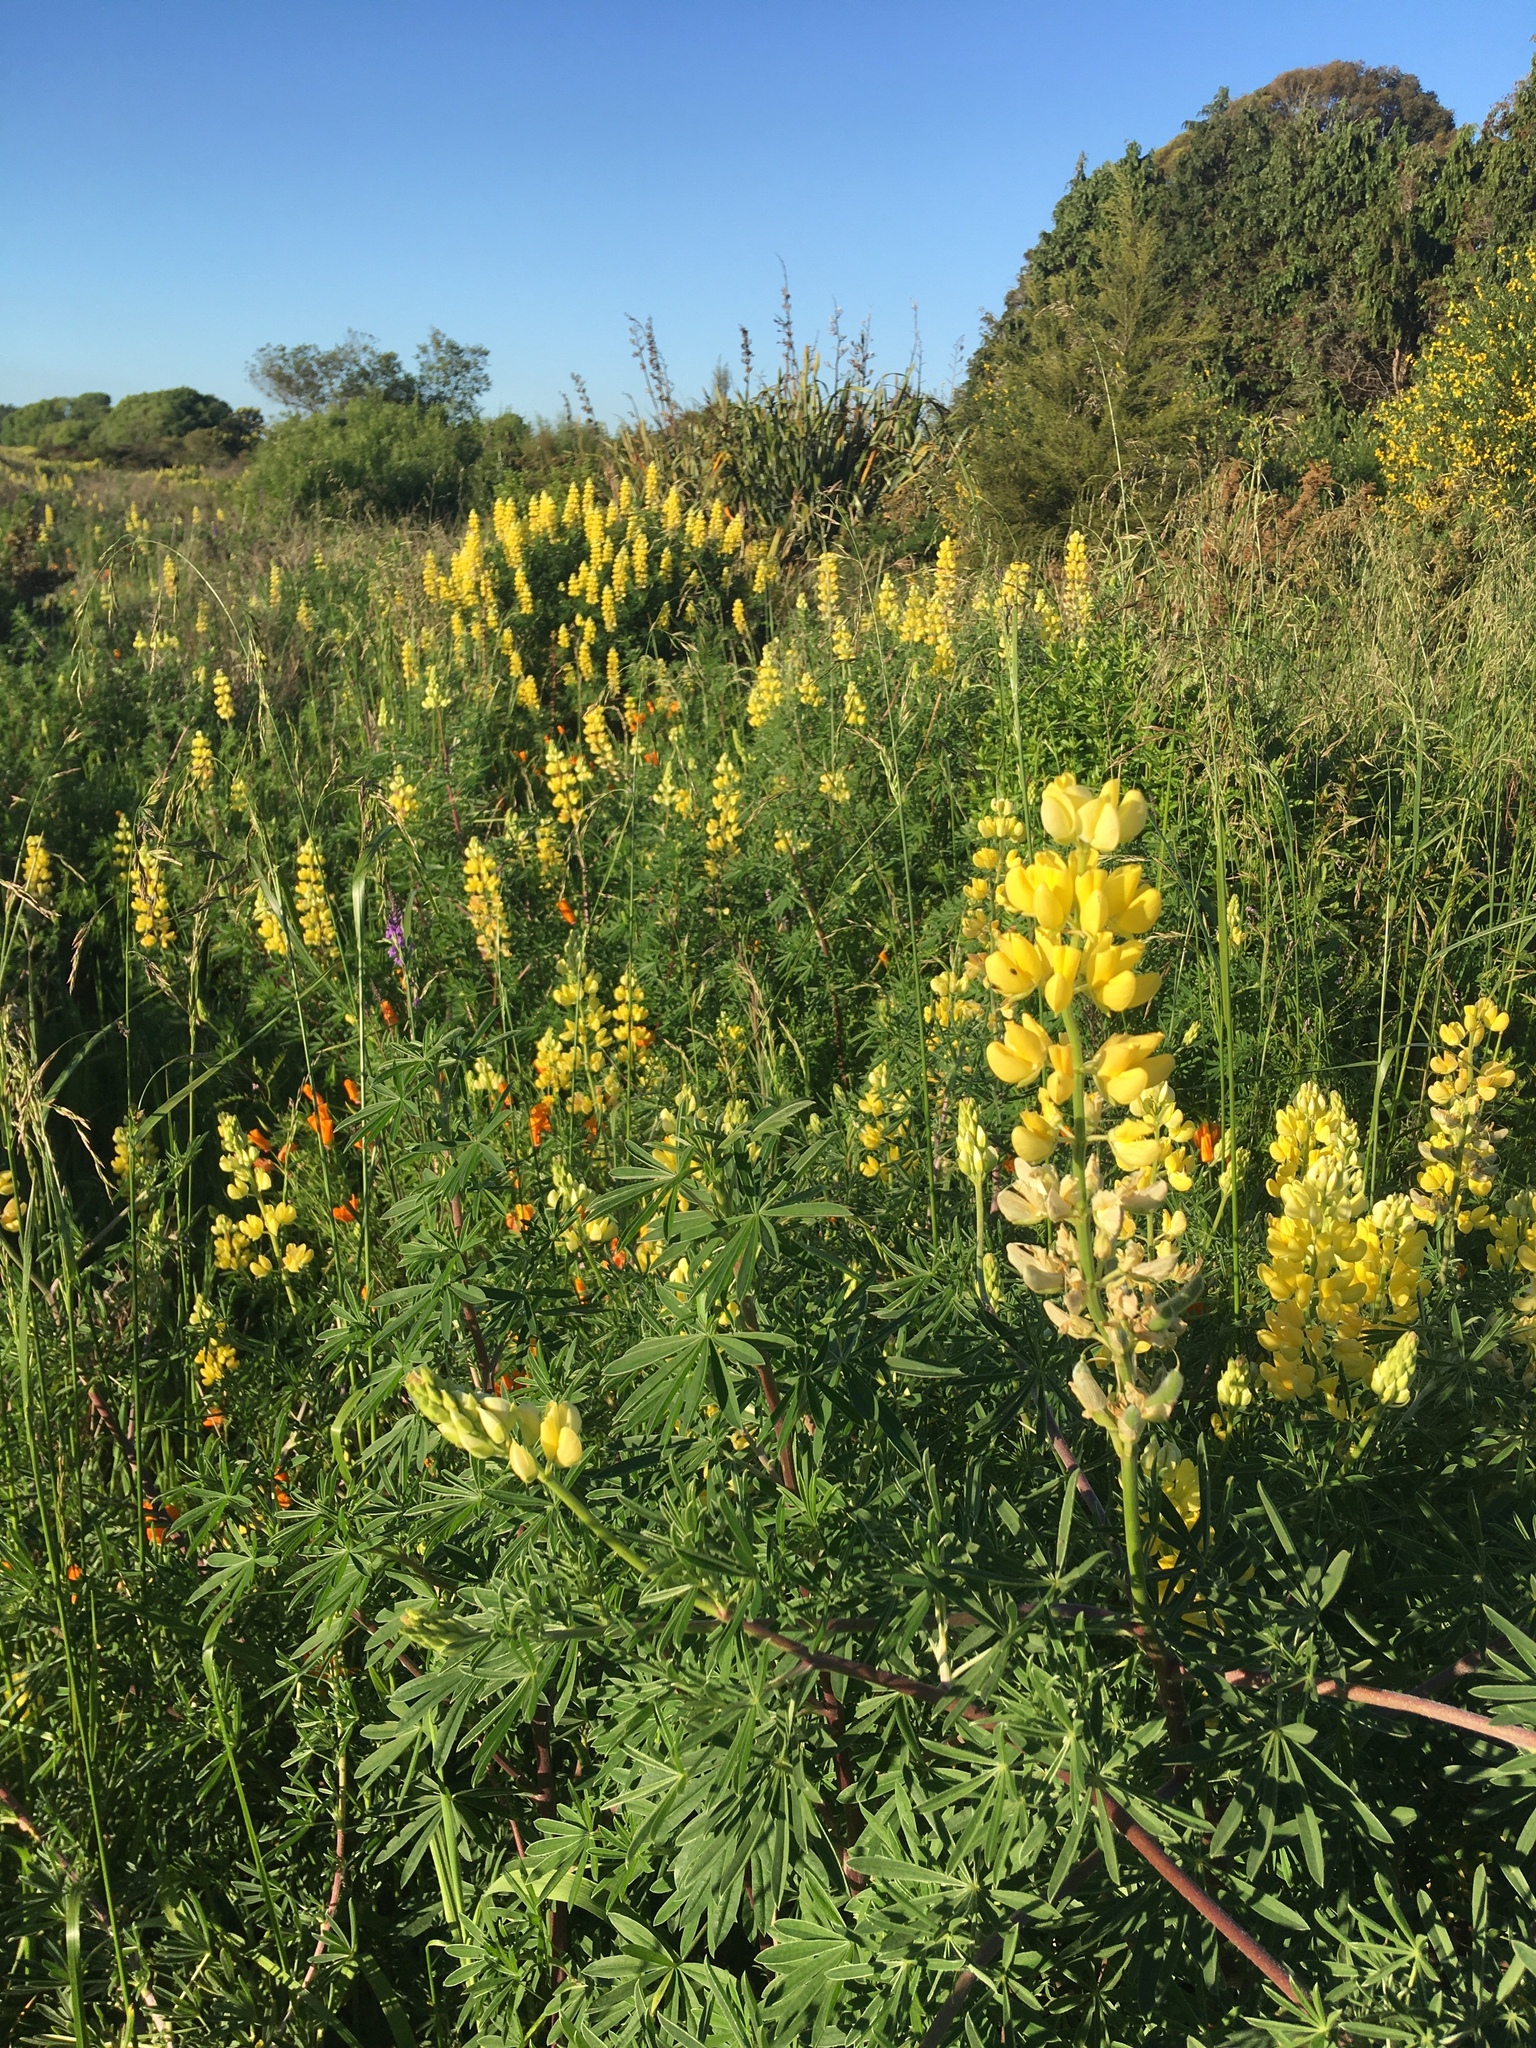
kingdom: Plantae
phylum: Tracheophyta
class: Magnoliopsida
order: Fabales
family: Fabaceae
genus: Lupinus
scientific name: Lupinus arboreus
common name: Yellow bush lupine
